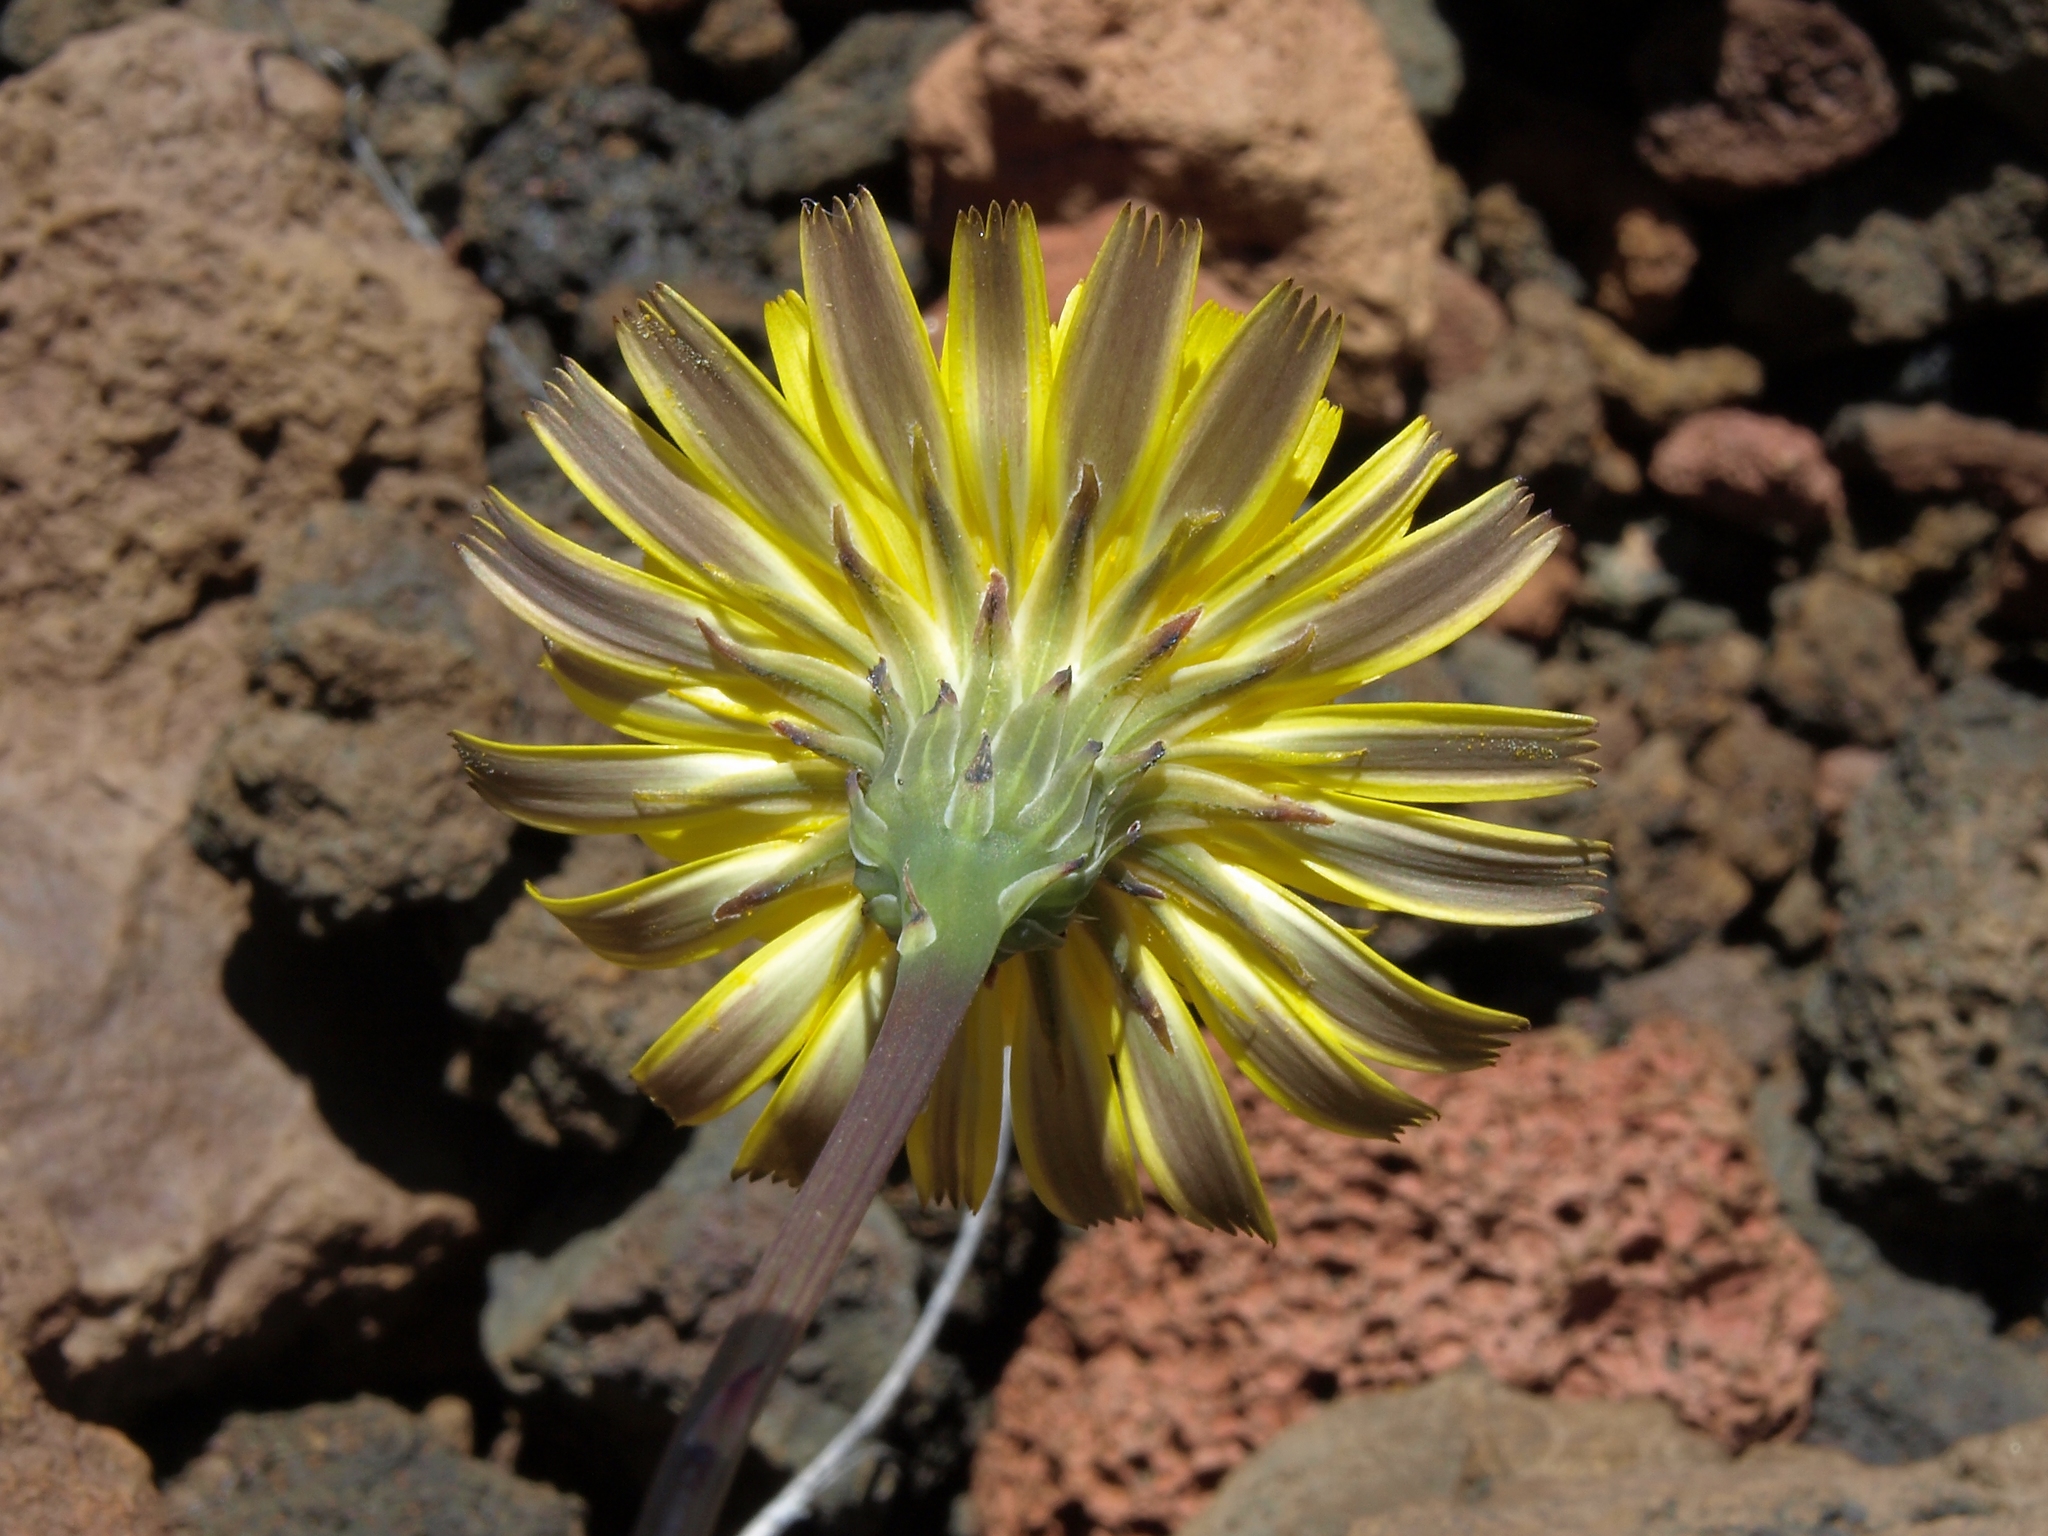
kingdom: Plantae
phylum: Tracheophyta
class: Magnoliopsida
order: Asterales
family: Asteraceae
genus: Hypochaeris
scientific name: Hypochaeris radicata
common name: Flatweed
